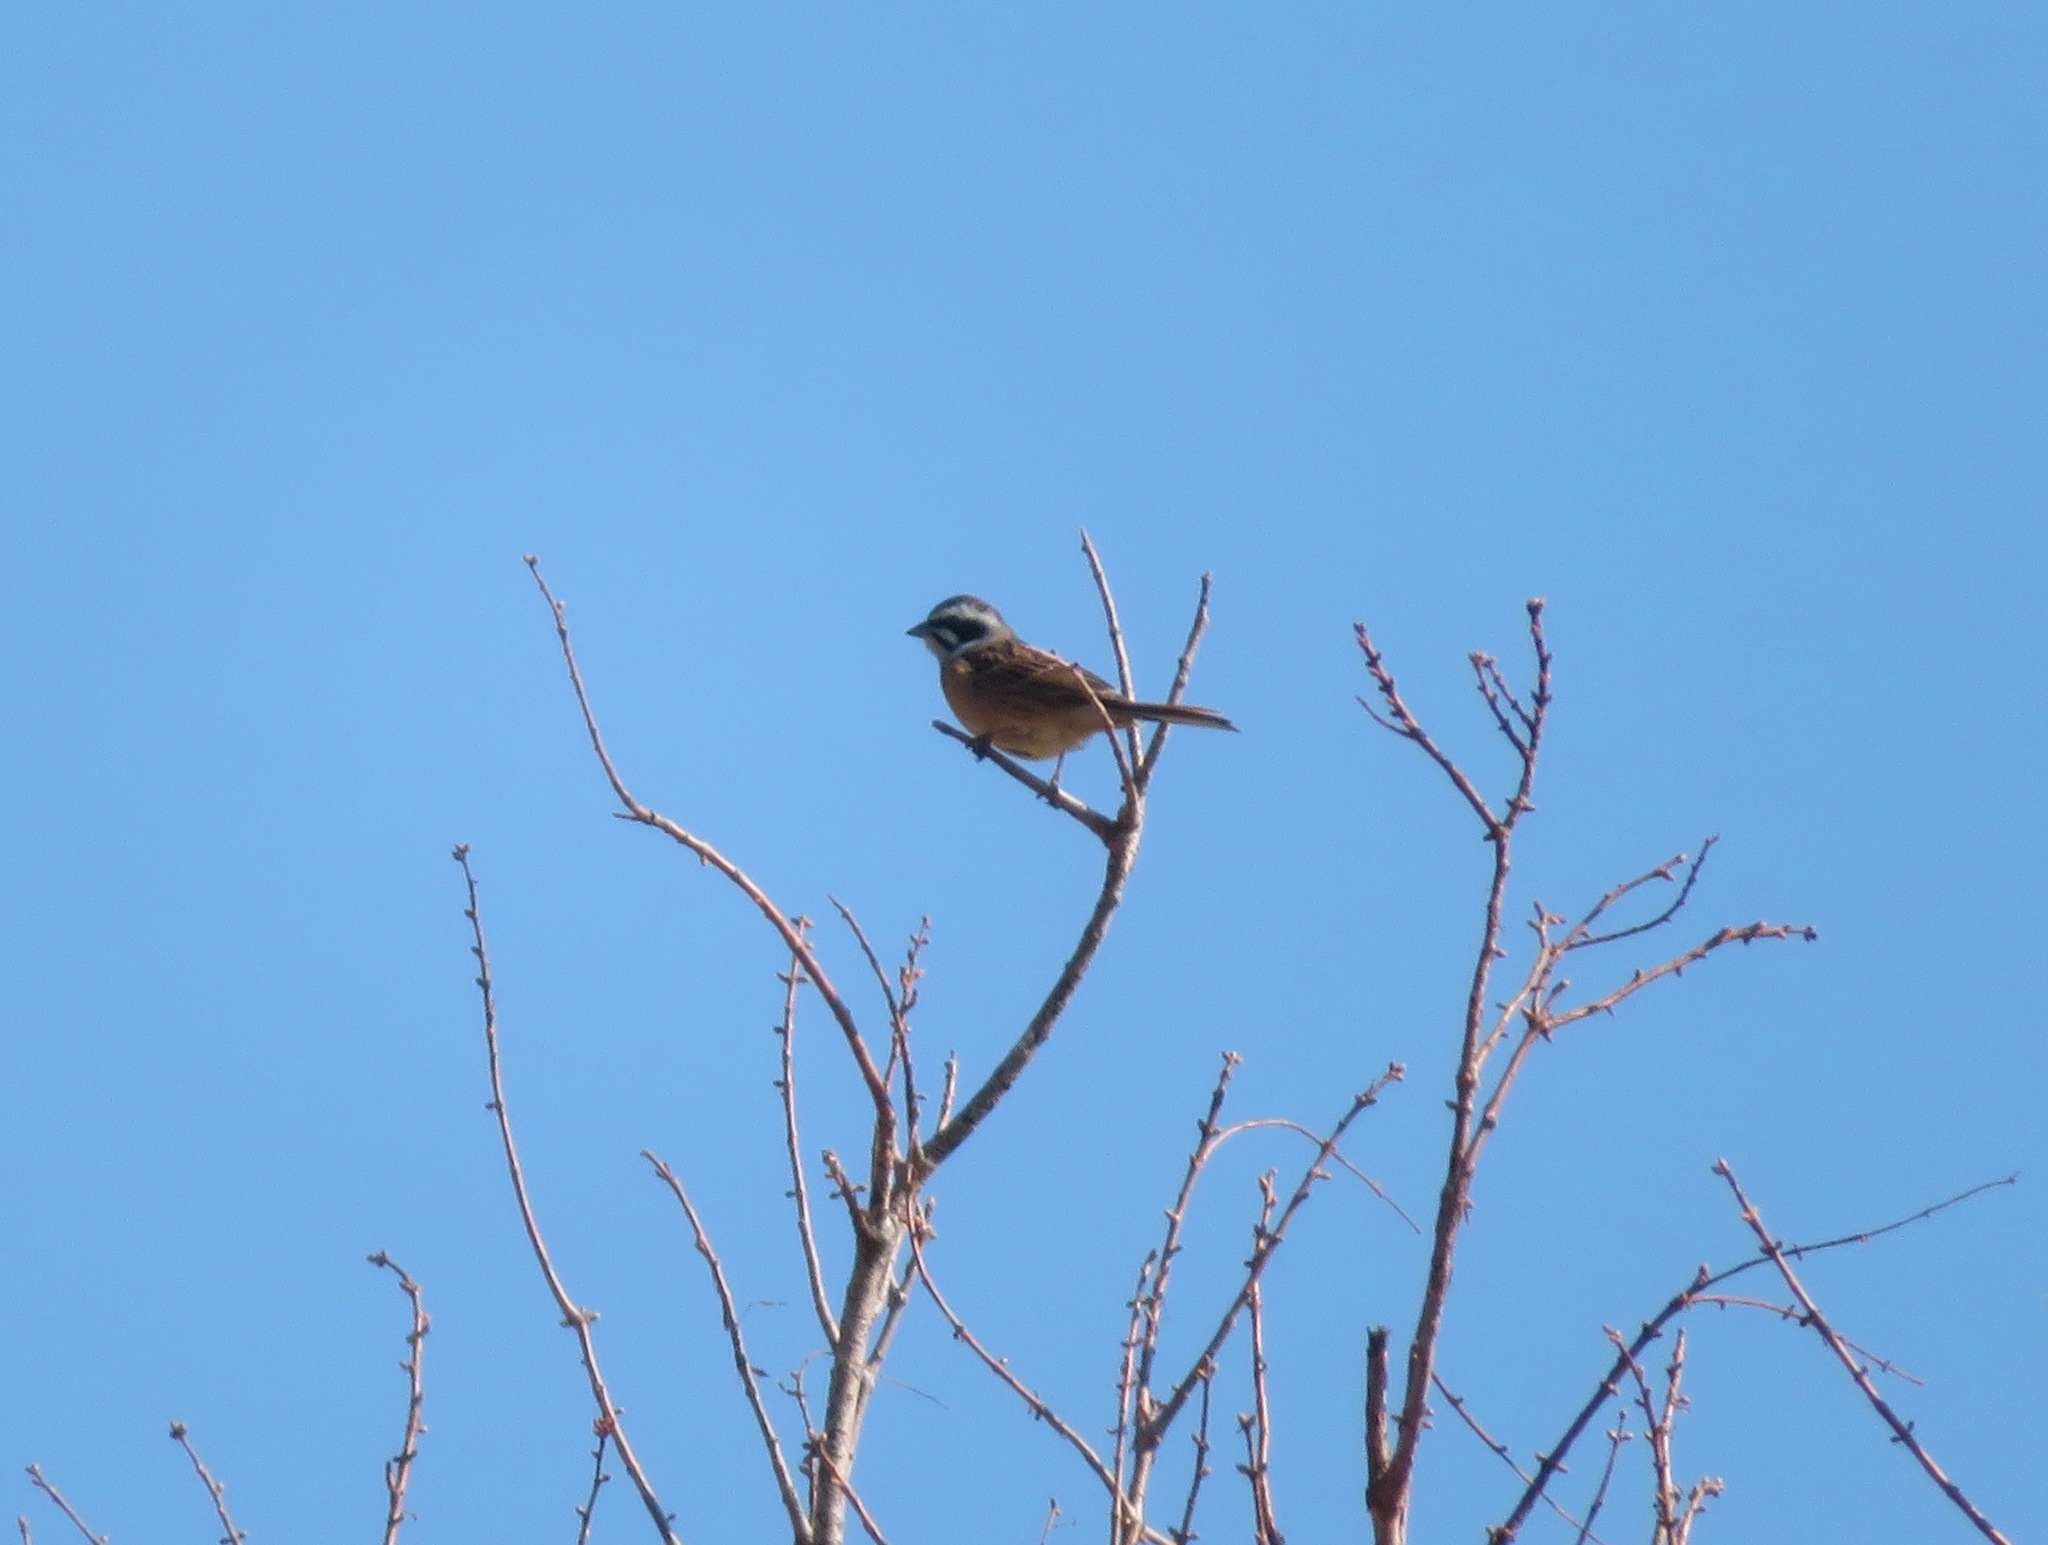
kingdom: Animalia
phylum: Chordata
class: Aves
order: Passeriformes
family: Emberizidae
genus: Emberiza
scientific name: Emberiza cioides
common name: Meadow bunting
